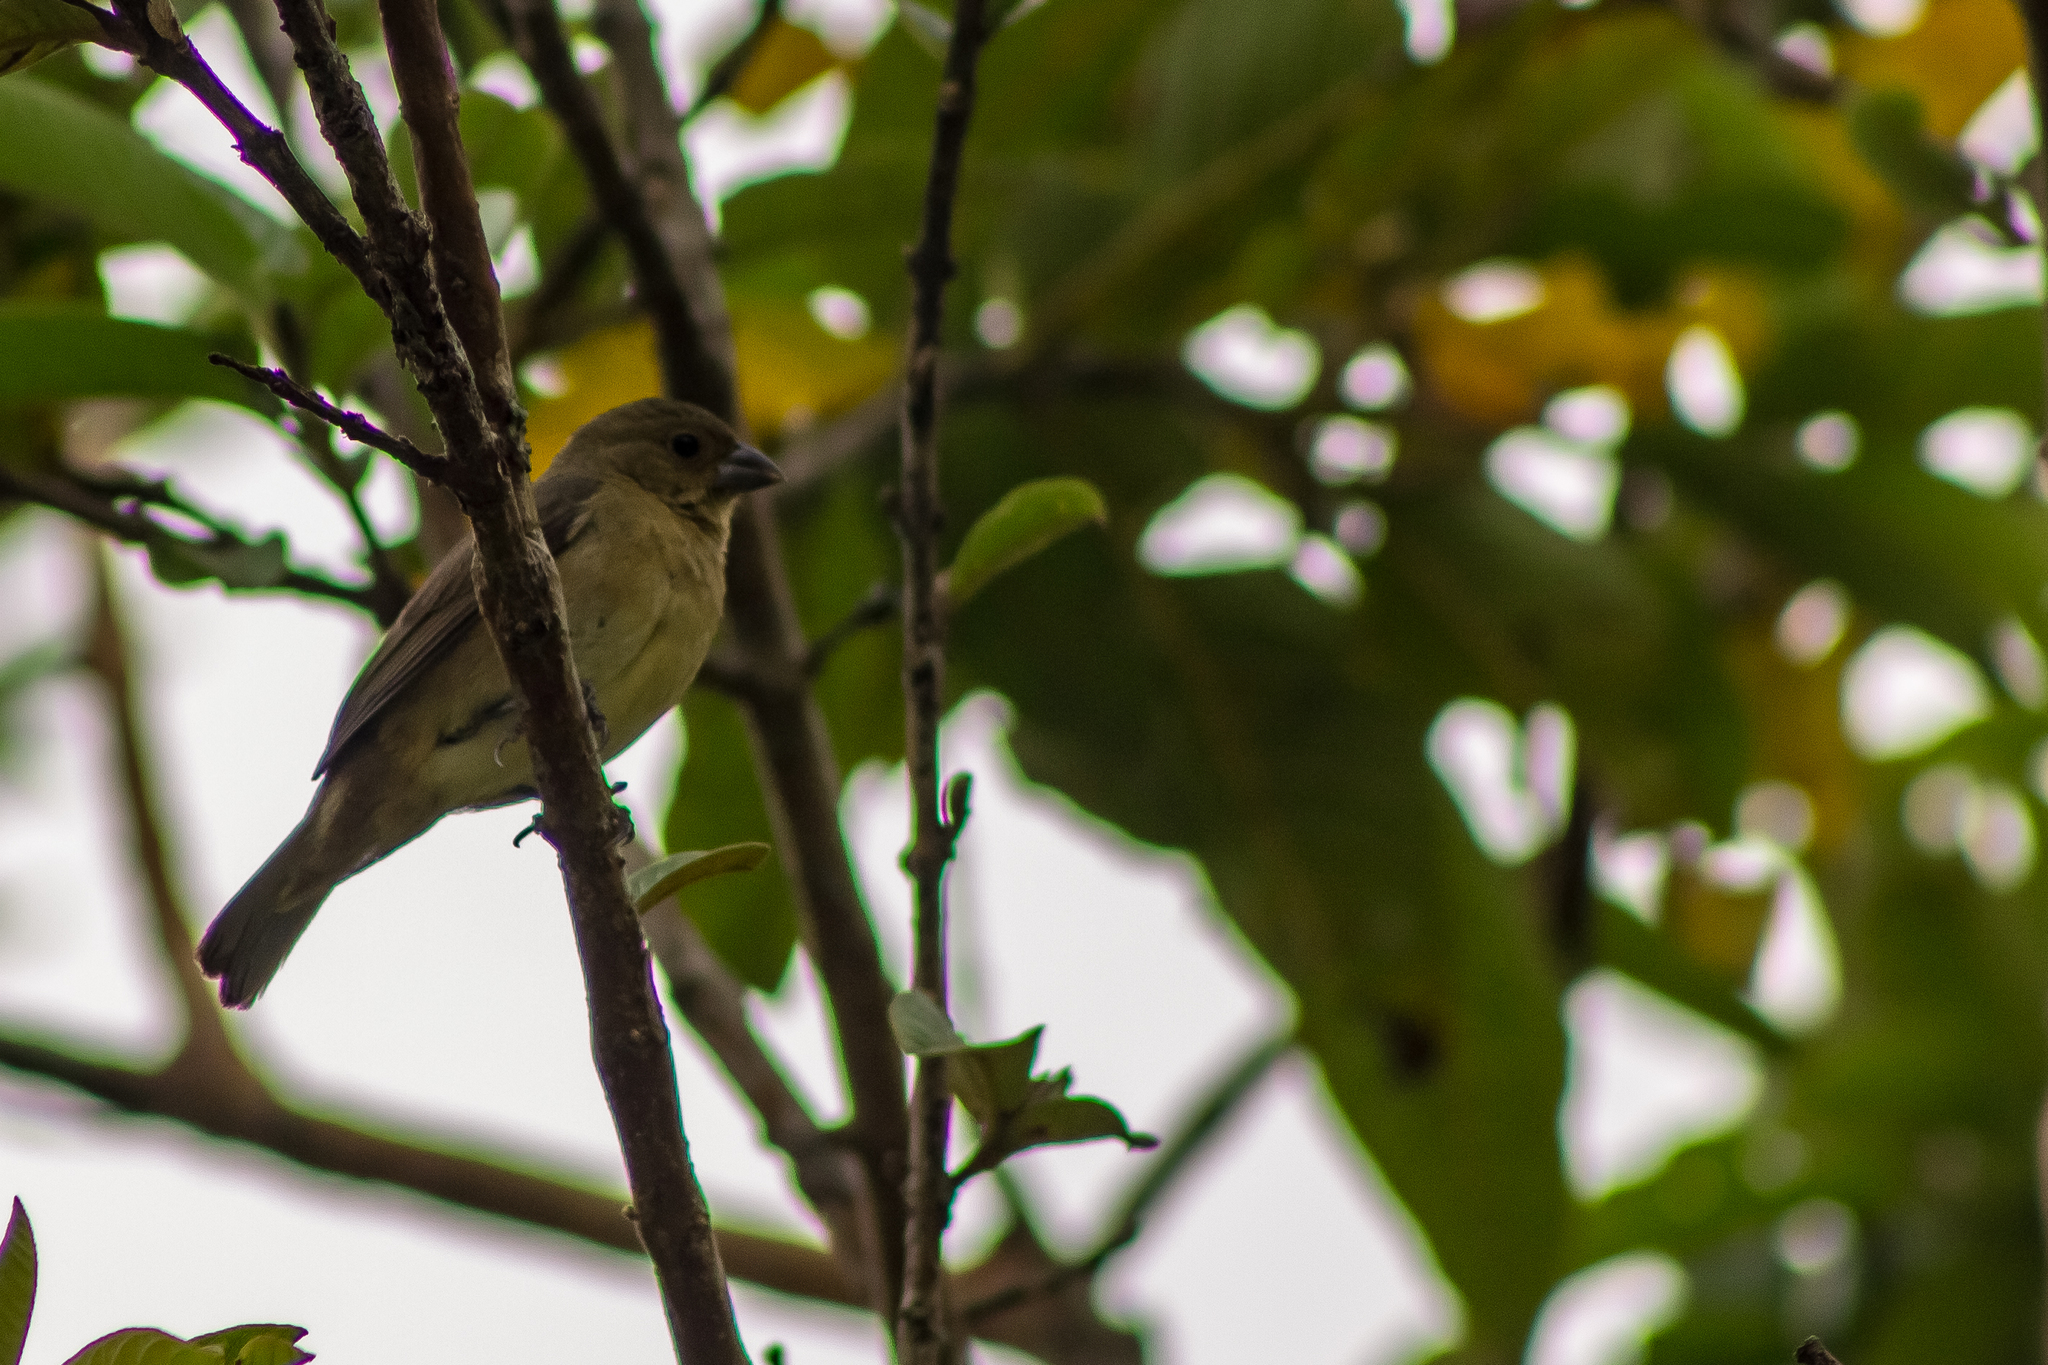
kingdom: Animalia
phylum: Chordata
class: Aves
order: Passeriformes
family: Thraupidae
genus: Sporophila
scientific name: Sporophila nigricollis
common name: Yellow-bellied seedeater
